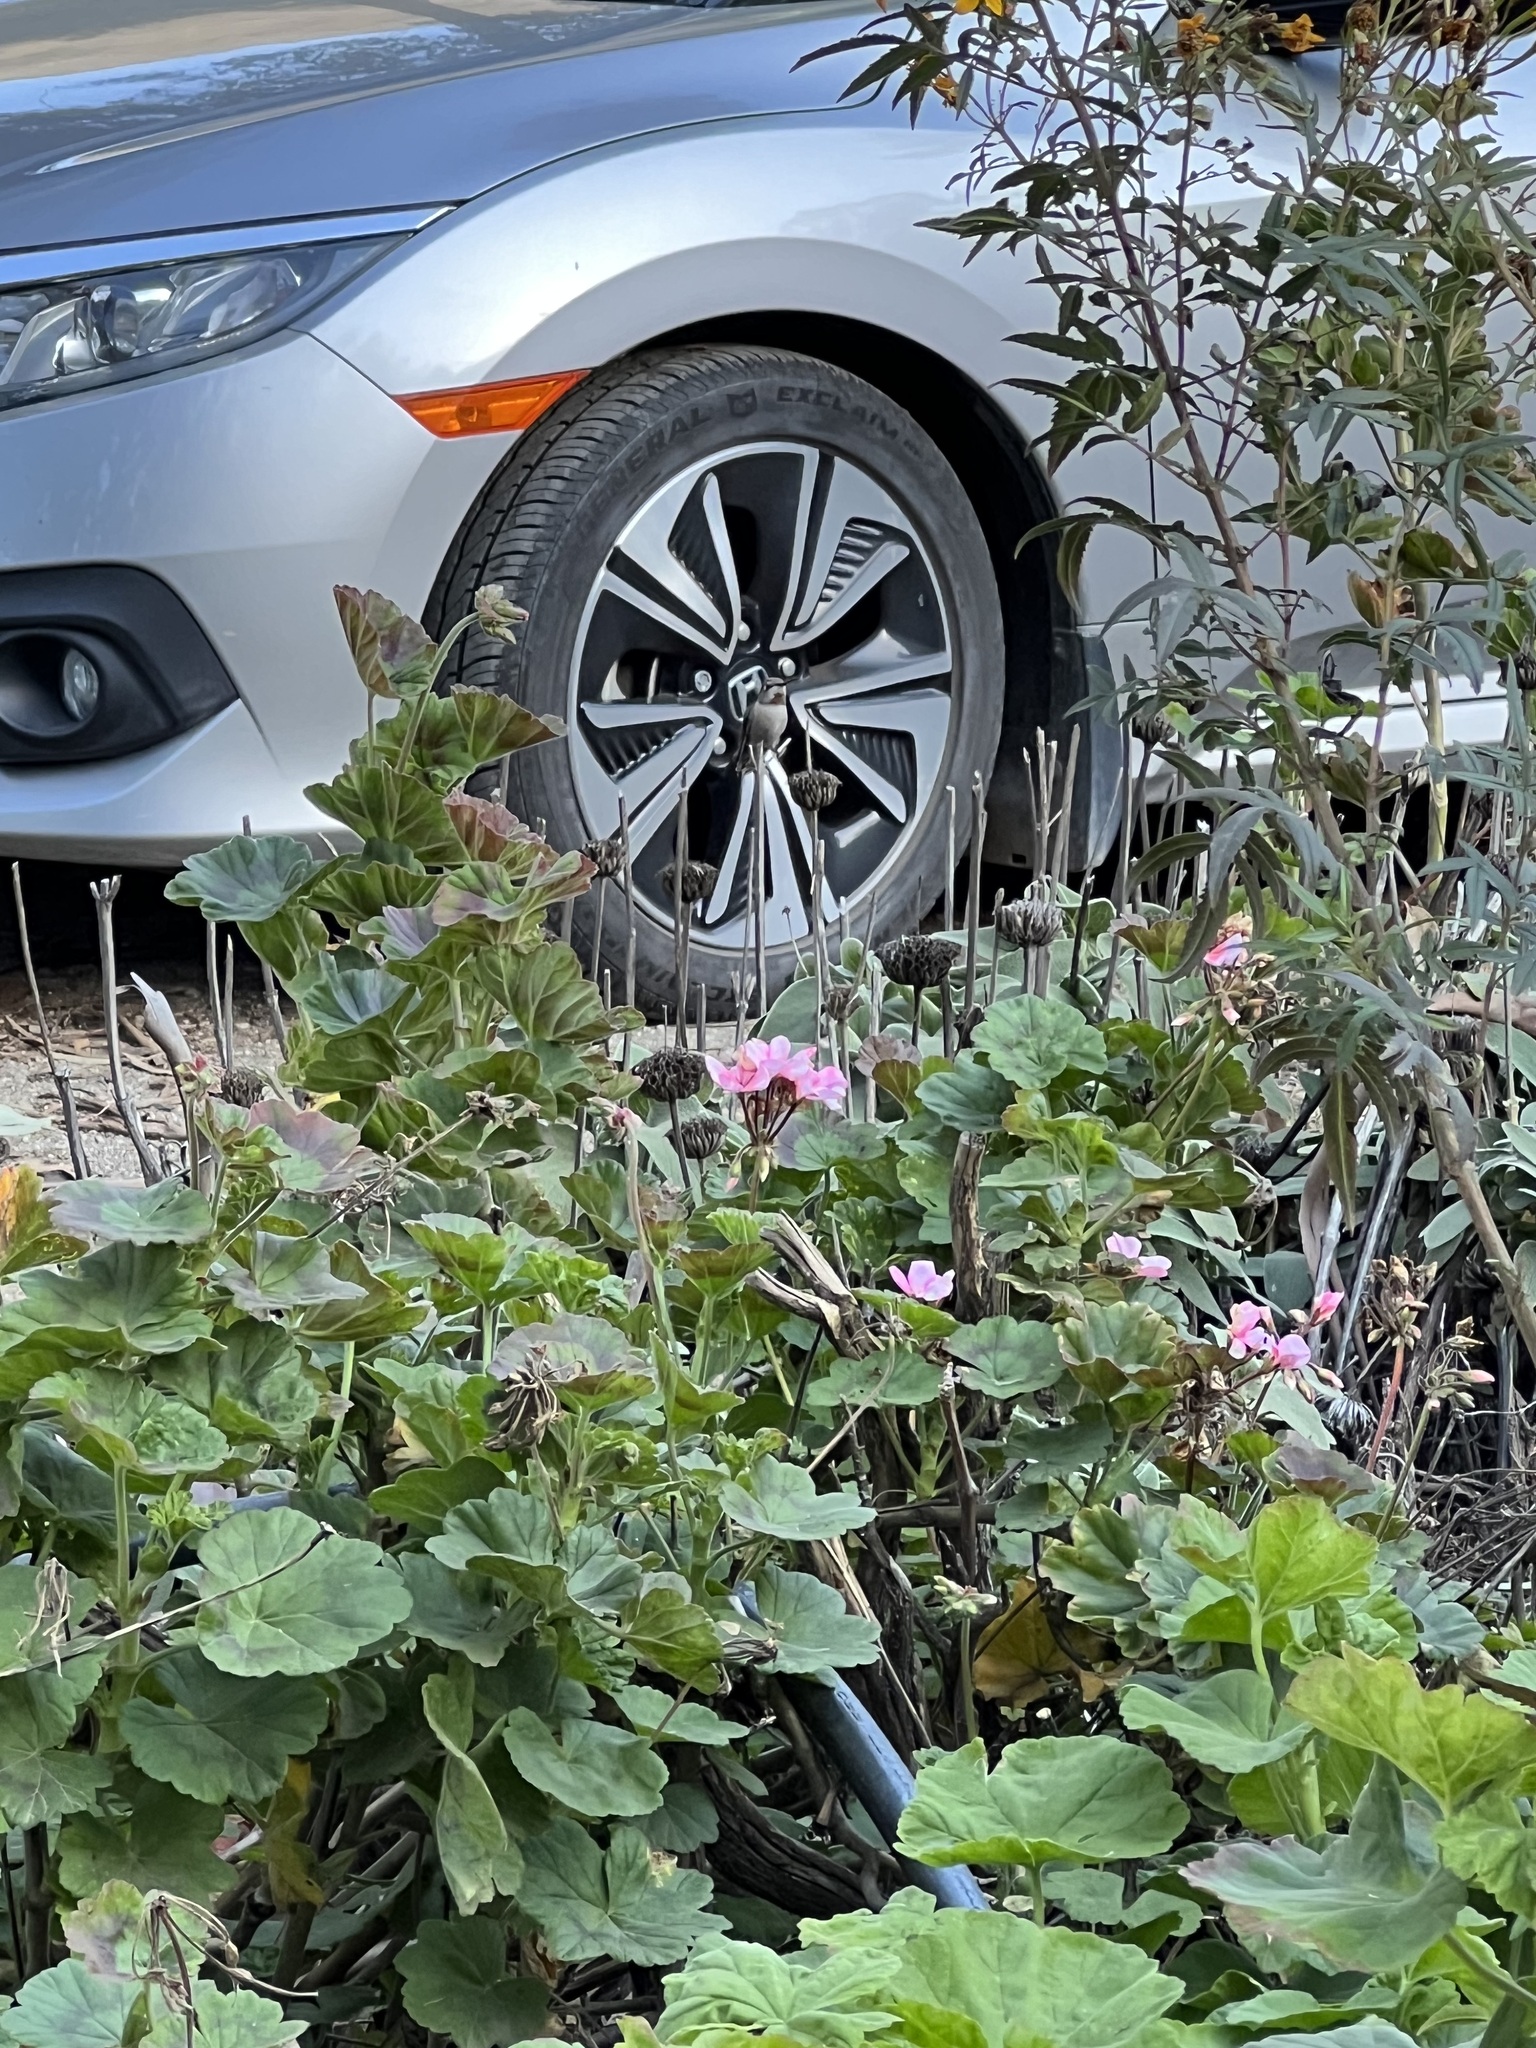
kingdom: Animalia
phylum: Chordata
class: Aves
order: Apodiformes
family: Trochilidae
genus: Calypte
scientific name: Calypte anna
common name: Anna's hummingbird
